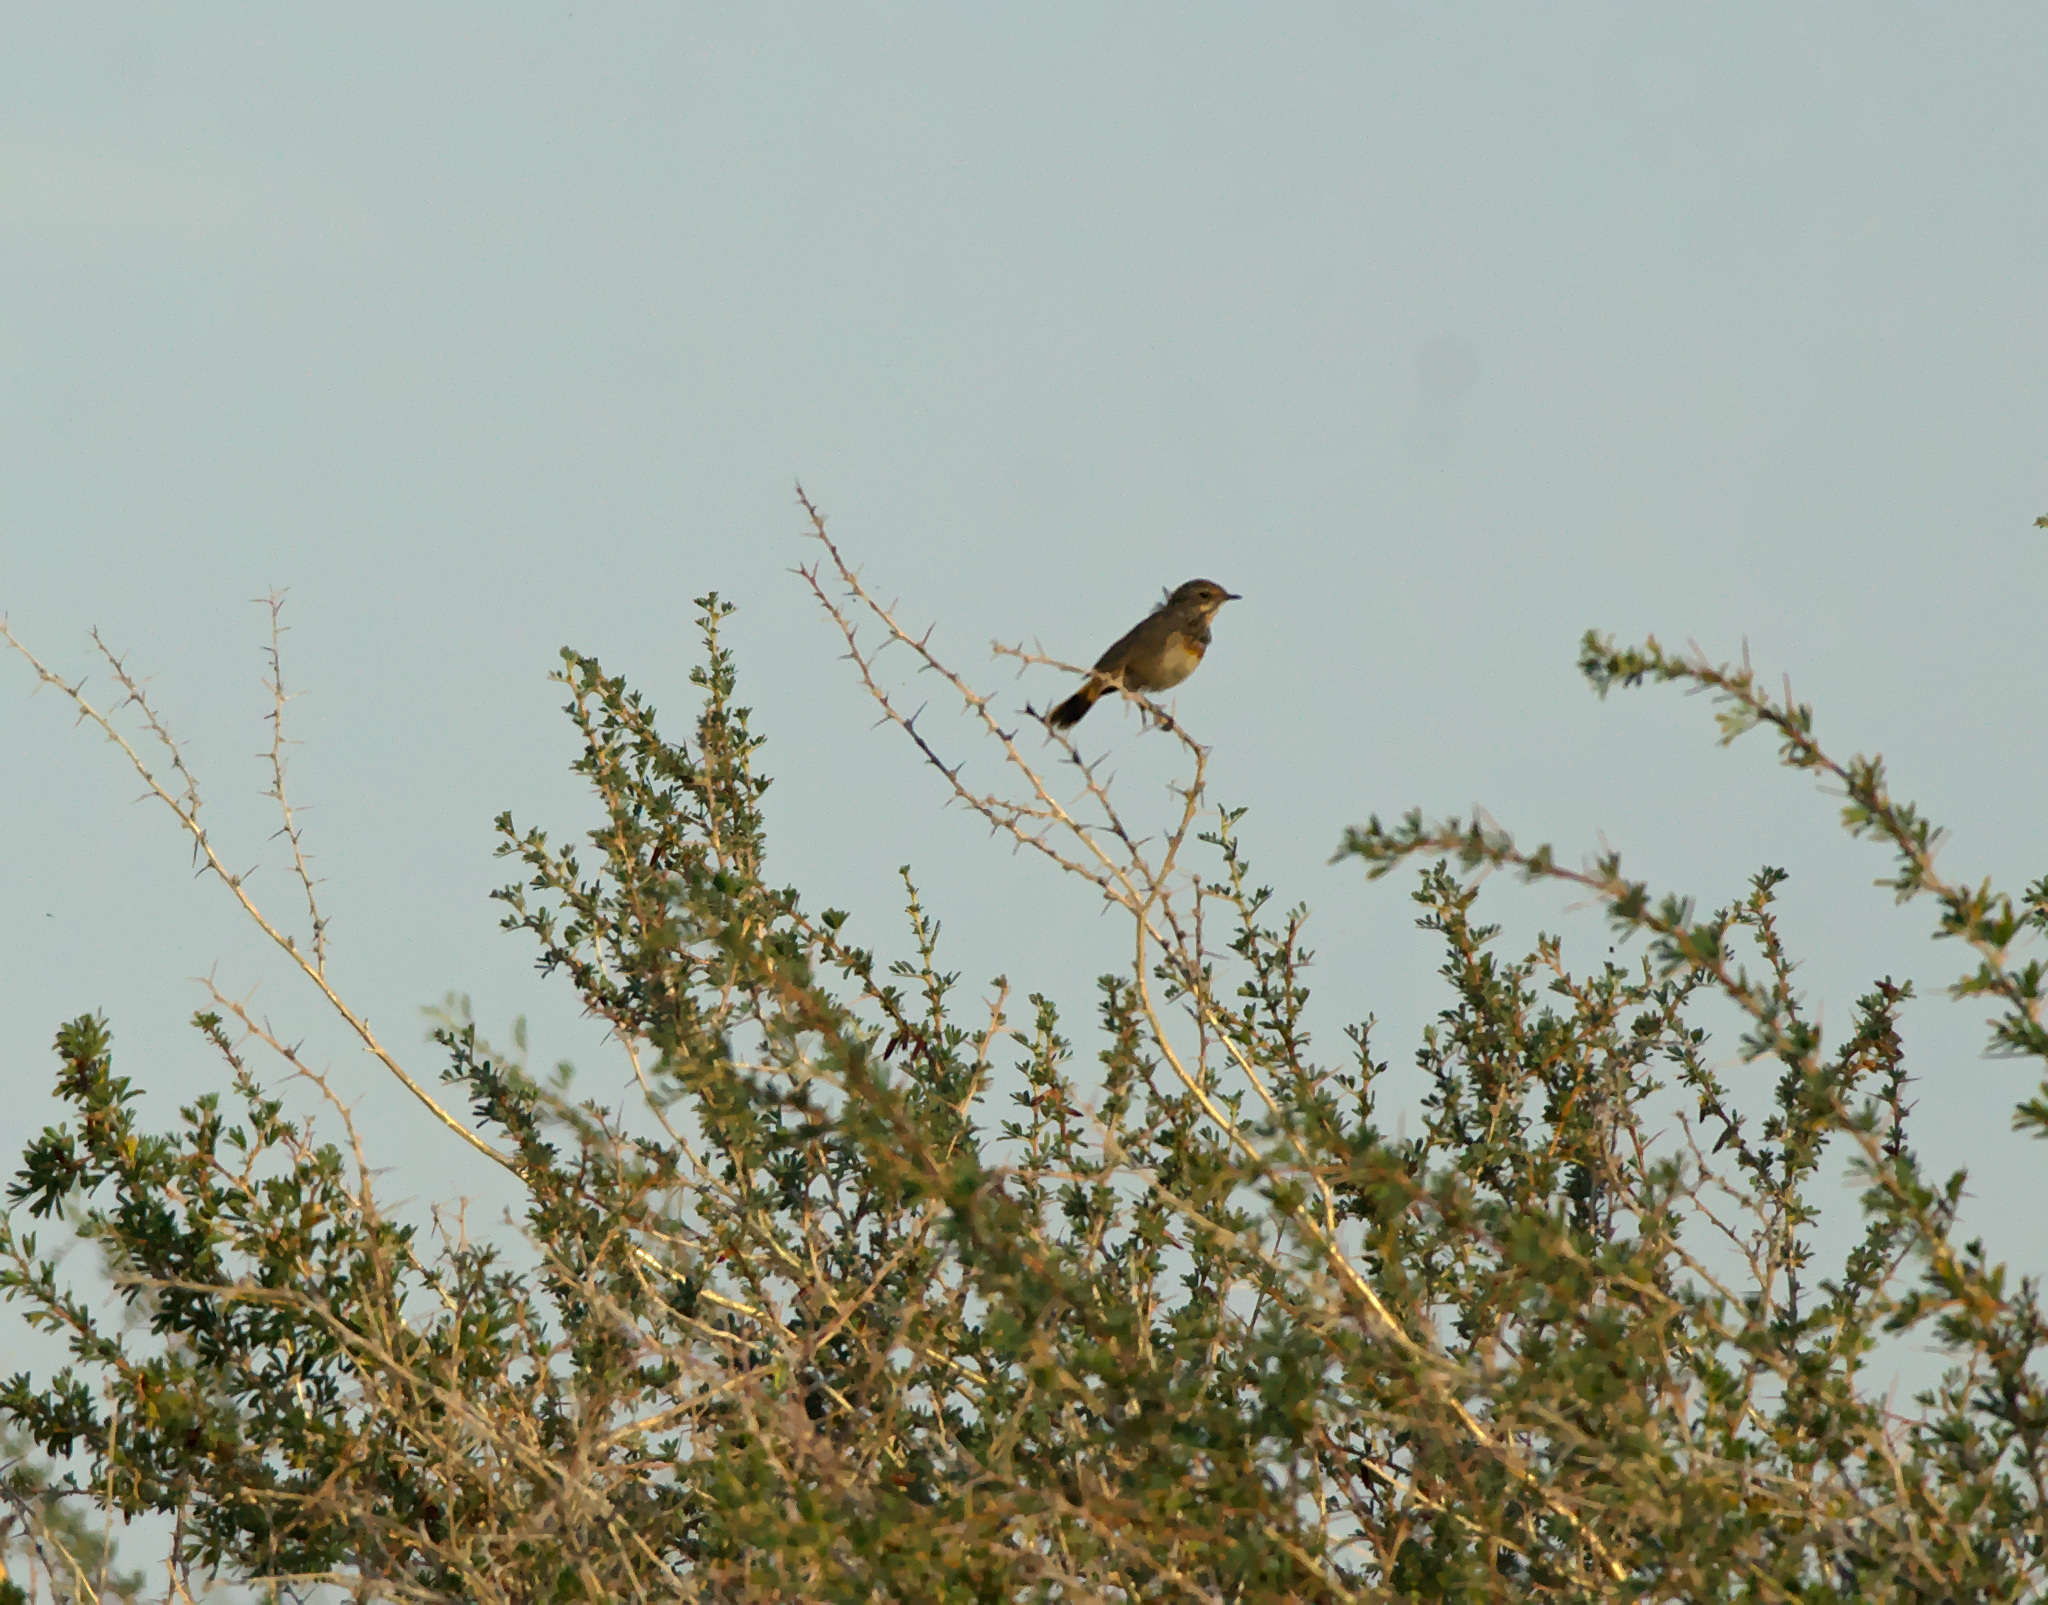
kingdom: Animalia
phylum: Chordata
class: Aves
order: Passeriformes
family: Muscicapidae
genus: Luscinia
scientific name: Luscinia svecica
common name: Bluethroat
